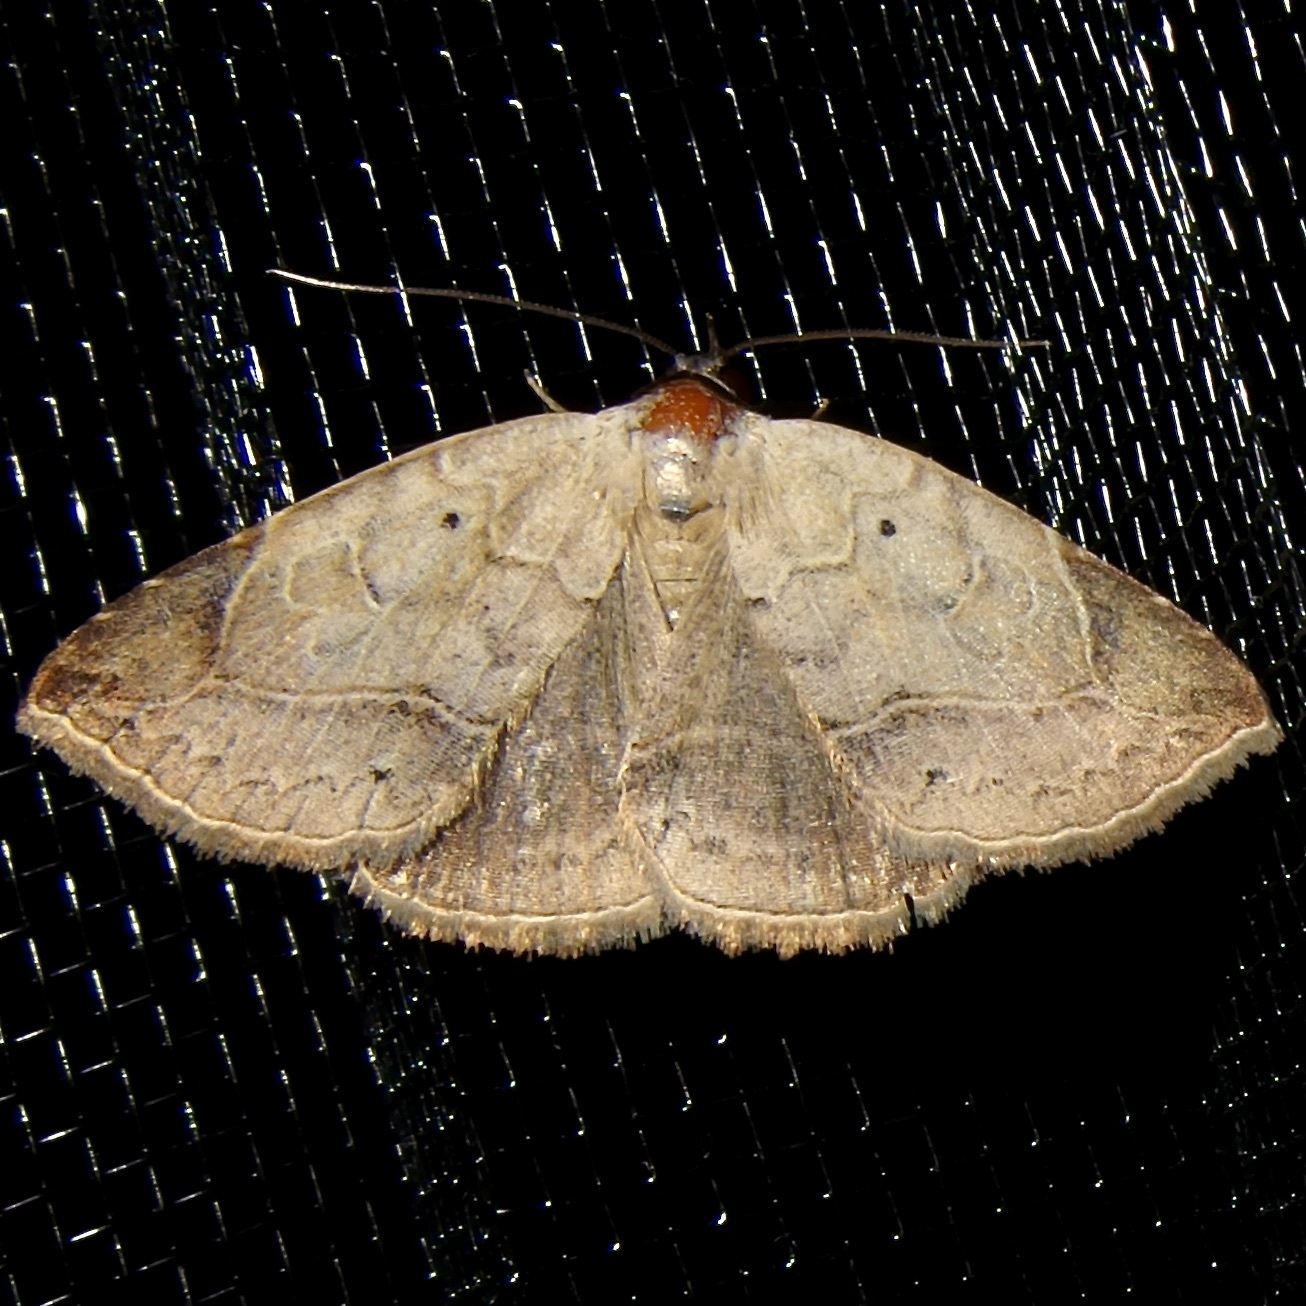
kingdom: Animalia
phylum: Arthropoda
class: Insecta
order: Lepidoptera
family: Erebidae
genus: Isogona
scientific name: Isogona segura
